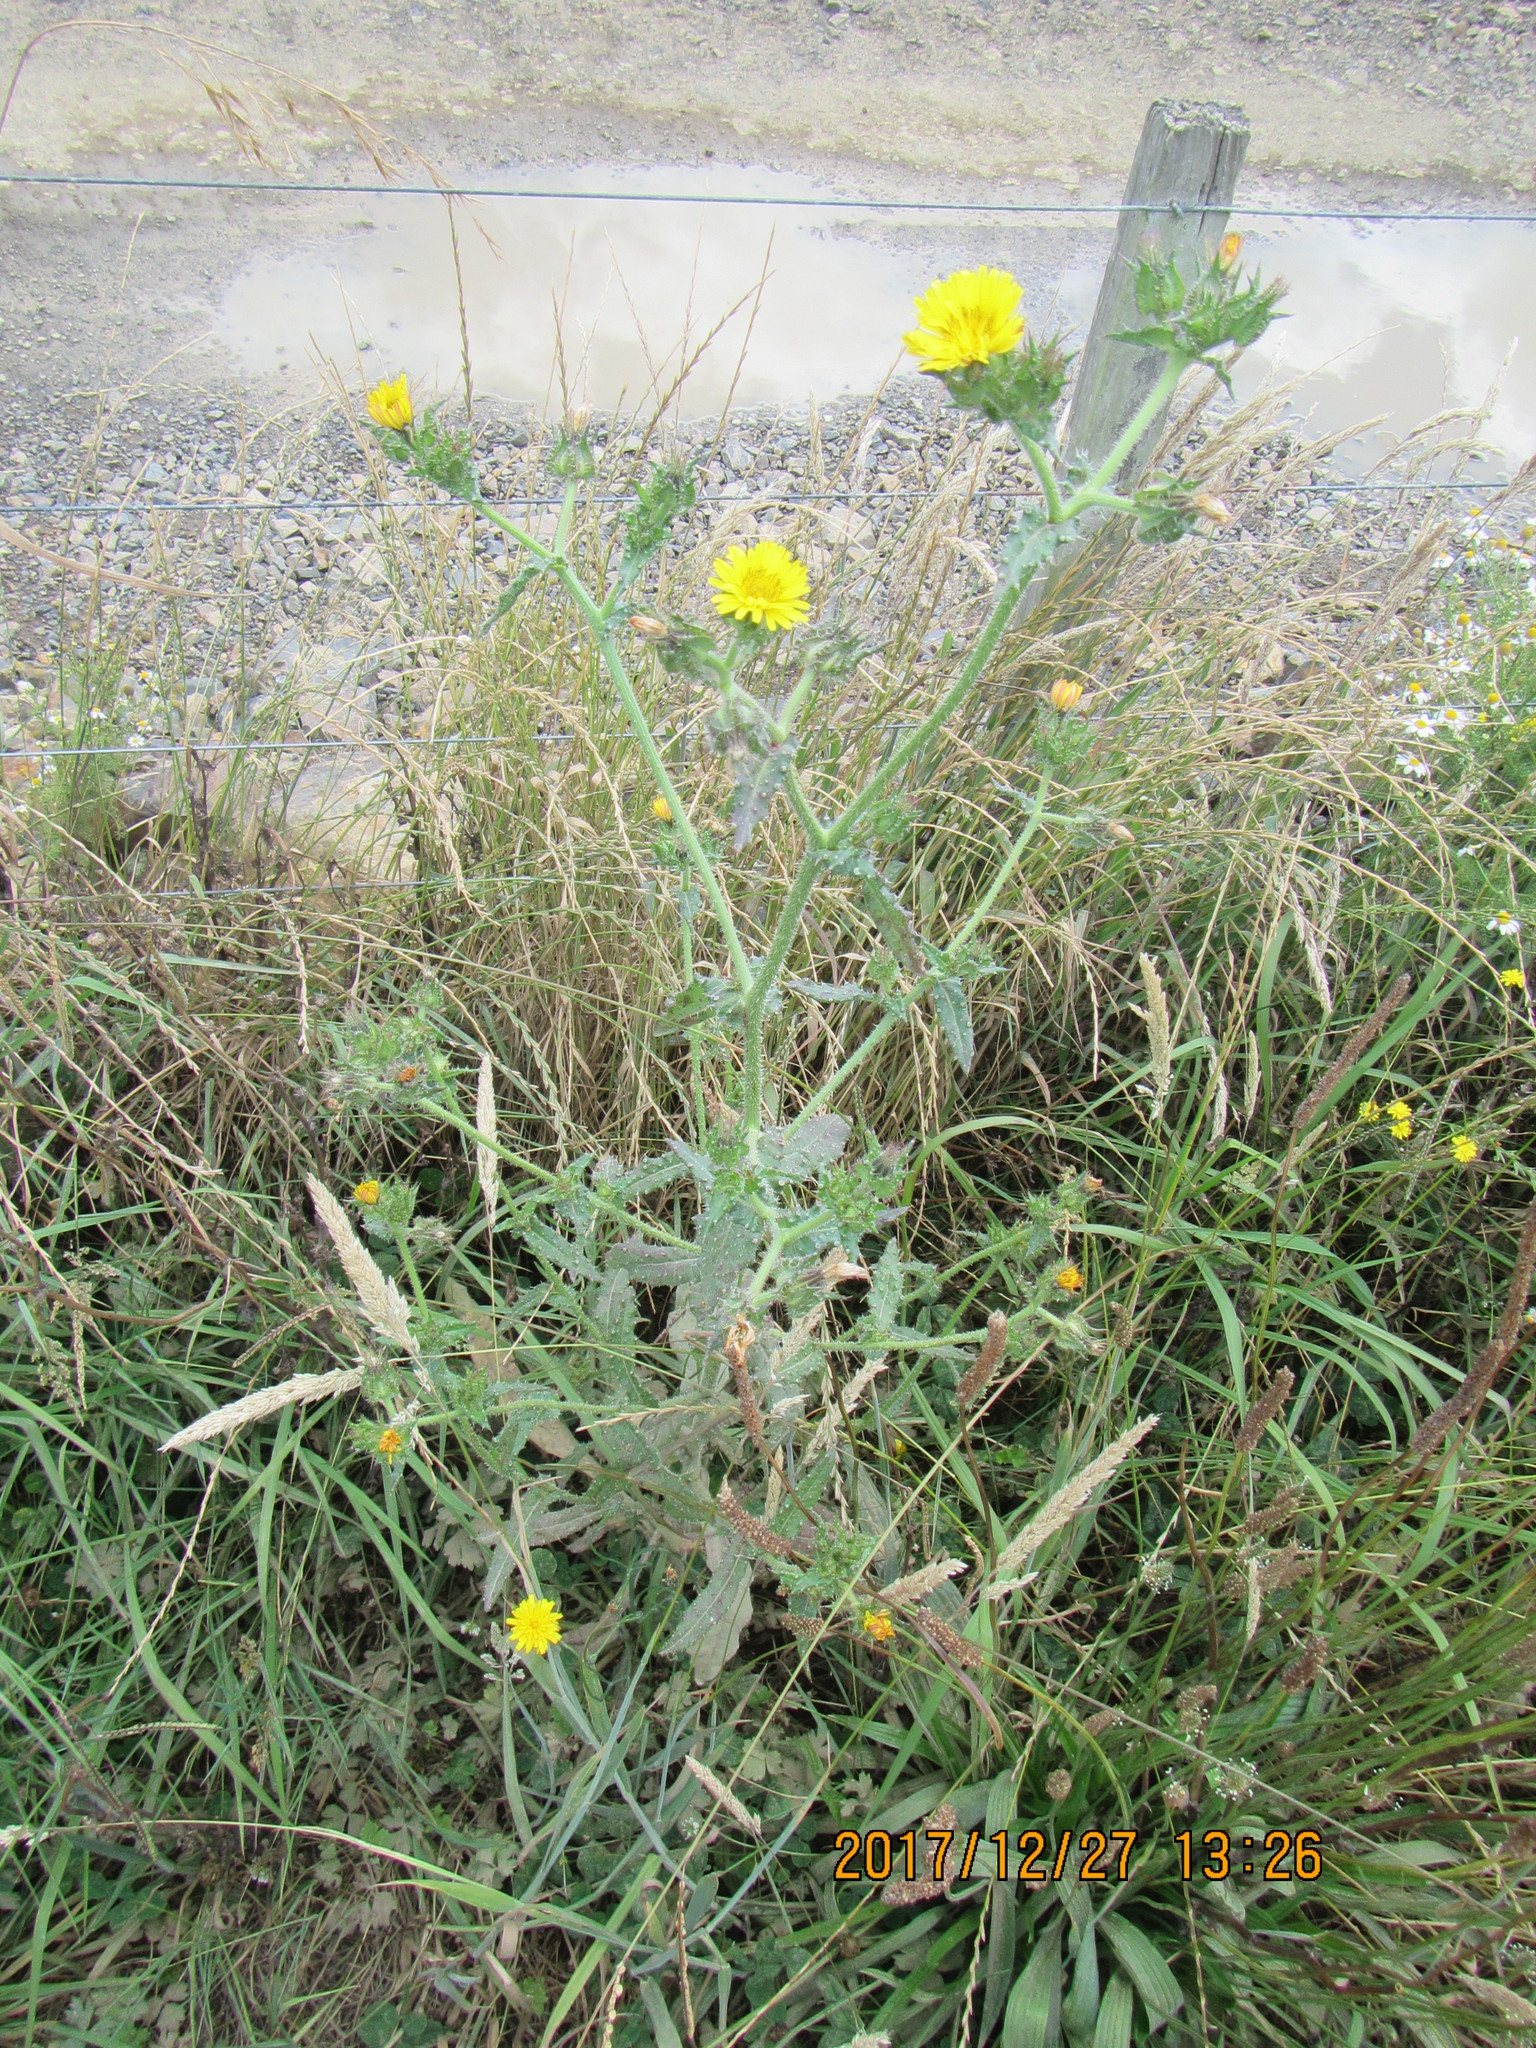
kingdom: Plantae
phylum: Tracheophyta
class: Magnoliopsida
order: Asterales
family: Asteraceae
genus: Helminthotheca
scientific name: Helminthotheca echioides
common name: Ox-tongue
